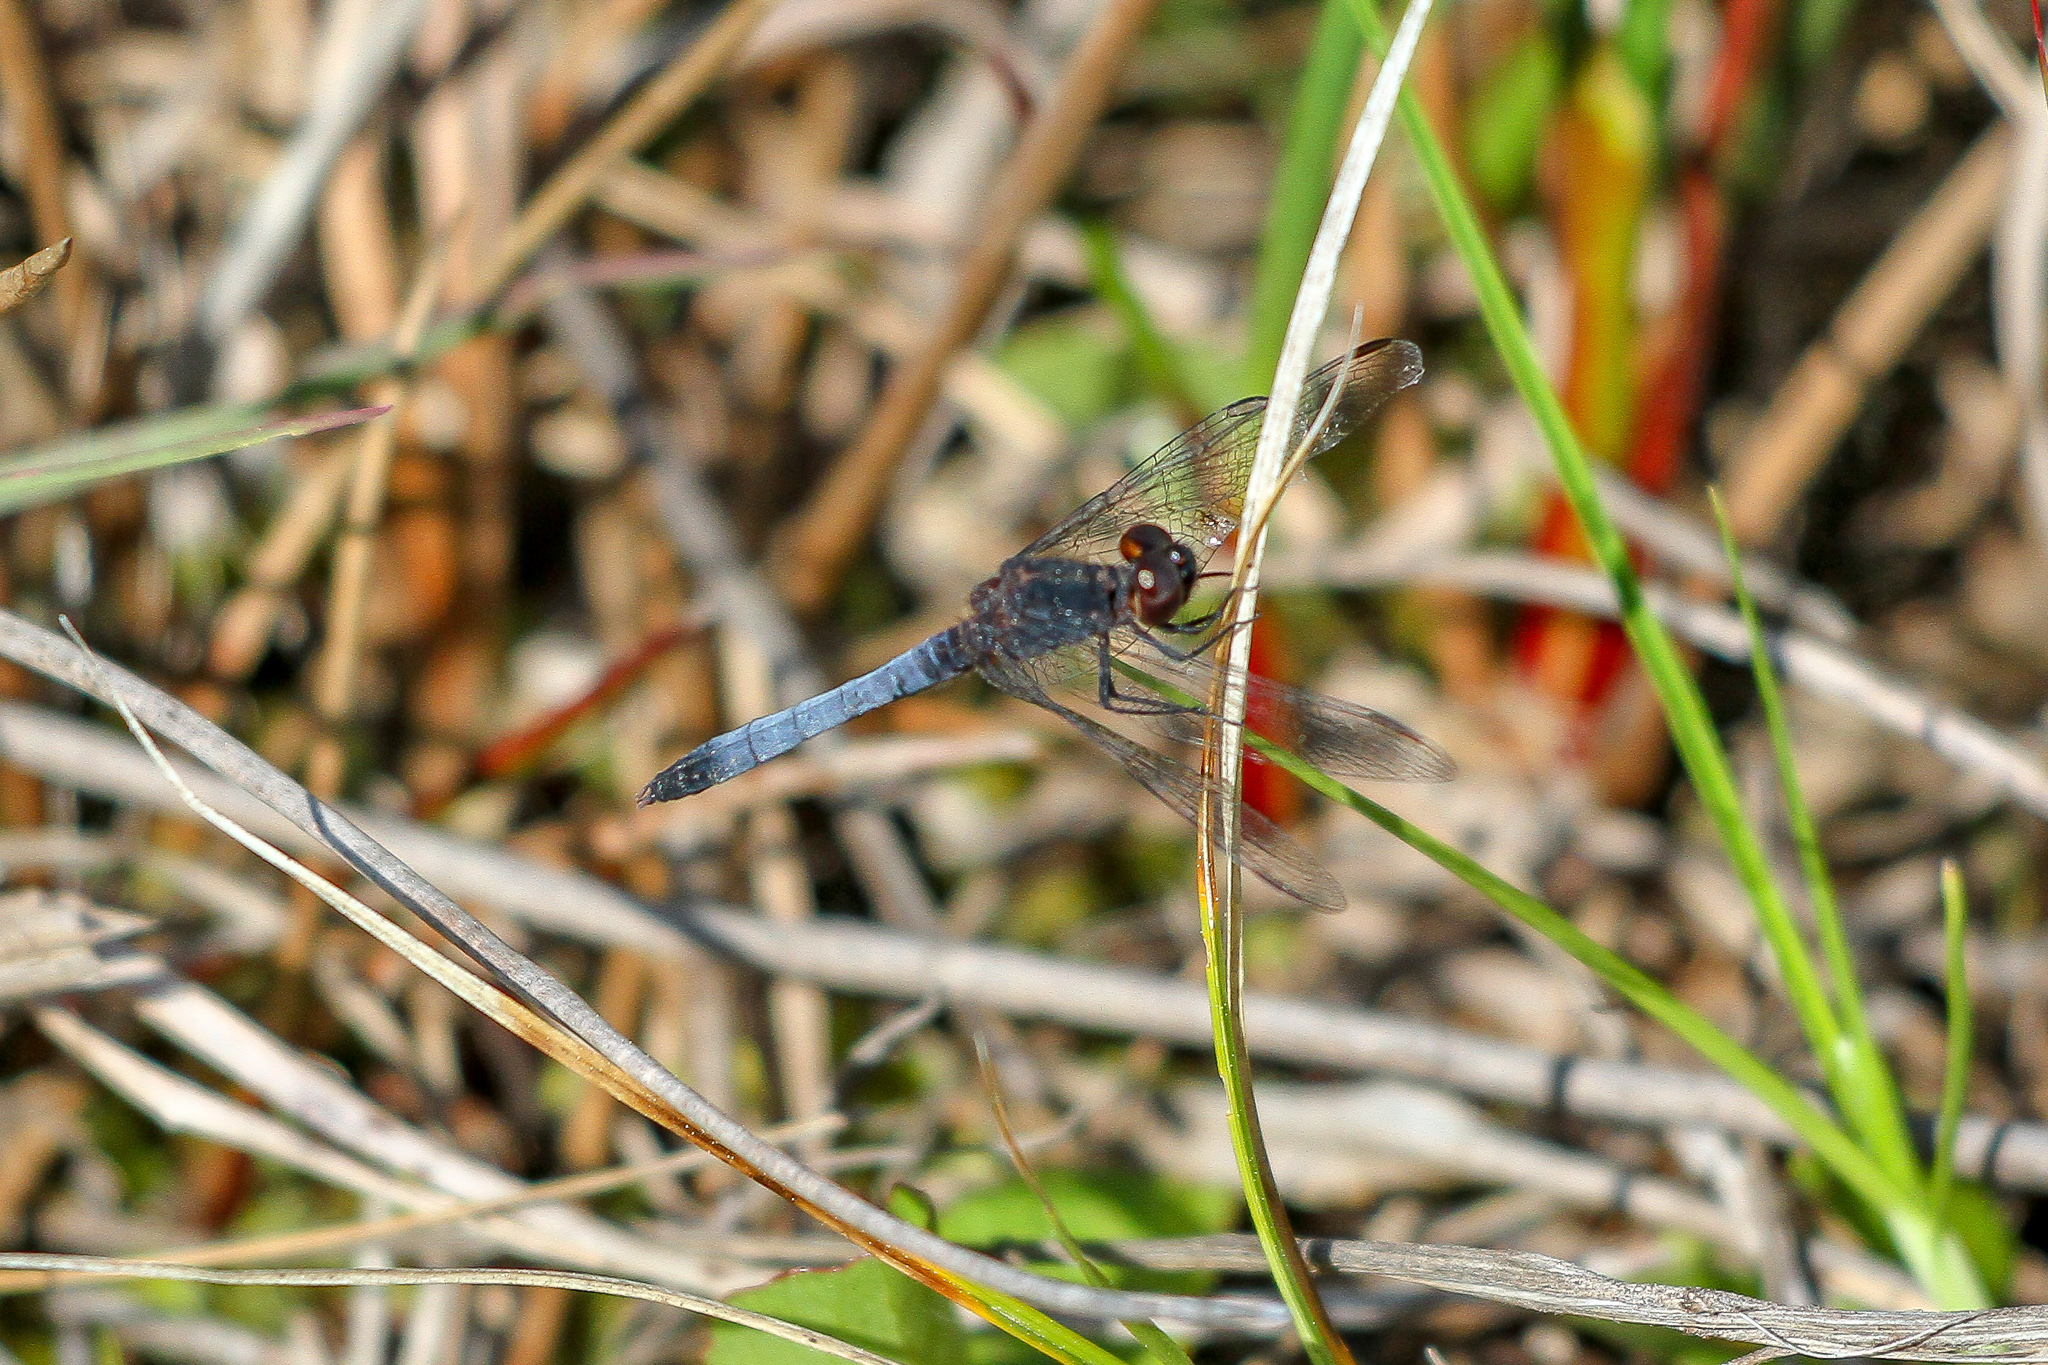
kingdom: Animalia
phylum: Arthropoda
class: Insecta
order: Odonata
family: Libellulidae
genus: Erythrodiplax
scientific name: Erythrodiplax minuscula
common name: Little blue dragonlet
